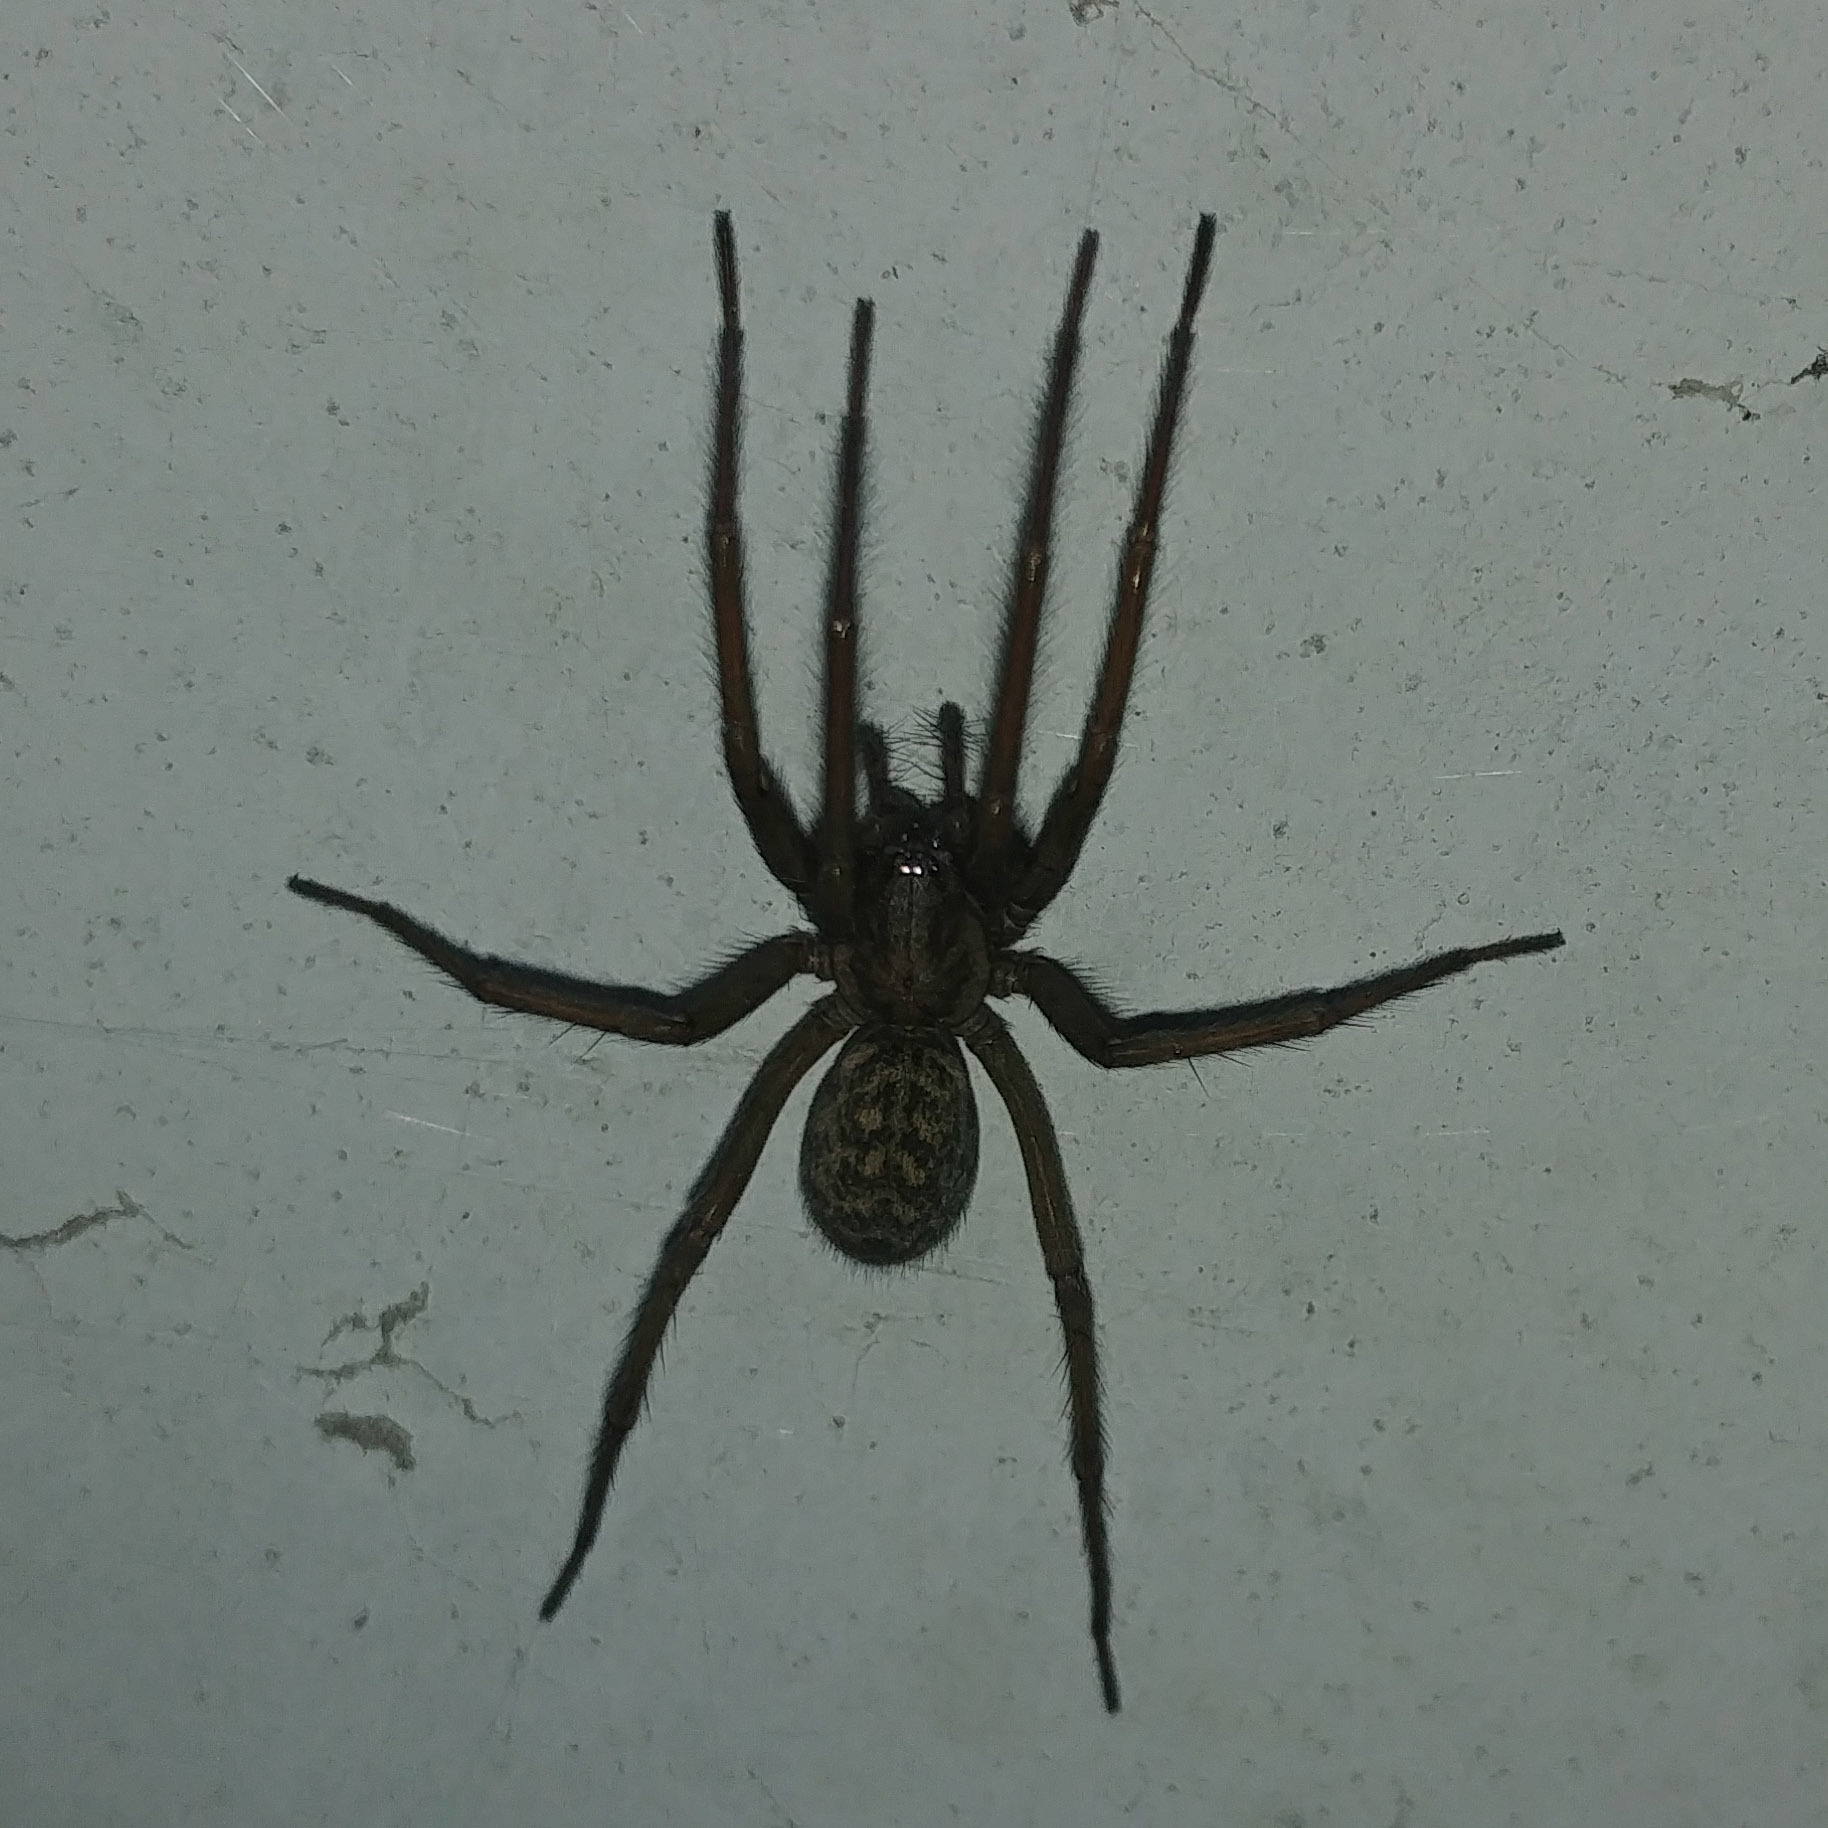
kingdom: Animalia
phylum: Arthropoda
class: Arachnida
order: Araneae
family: Agelenidae
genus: Eratigena
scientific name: Eratigena atrica
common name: Giant house spider
